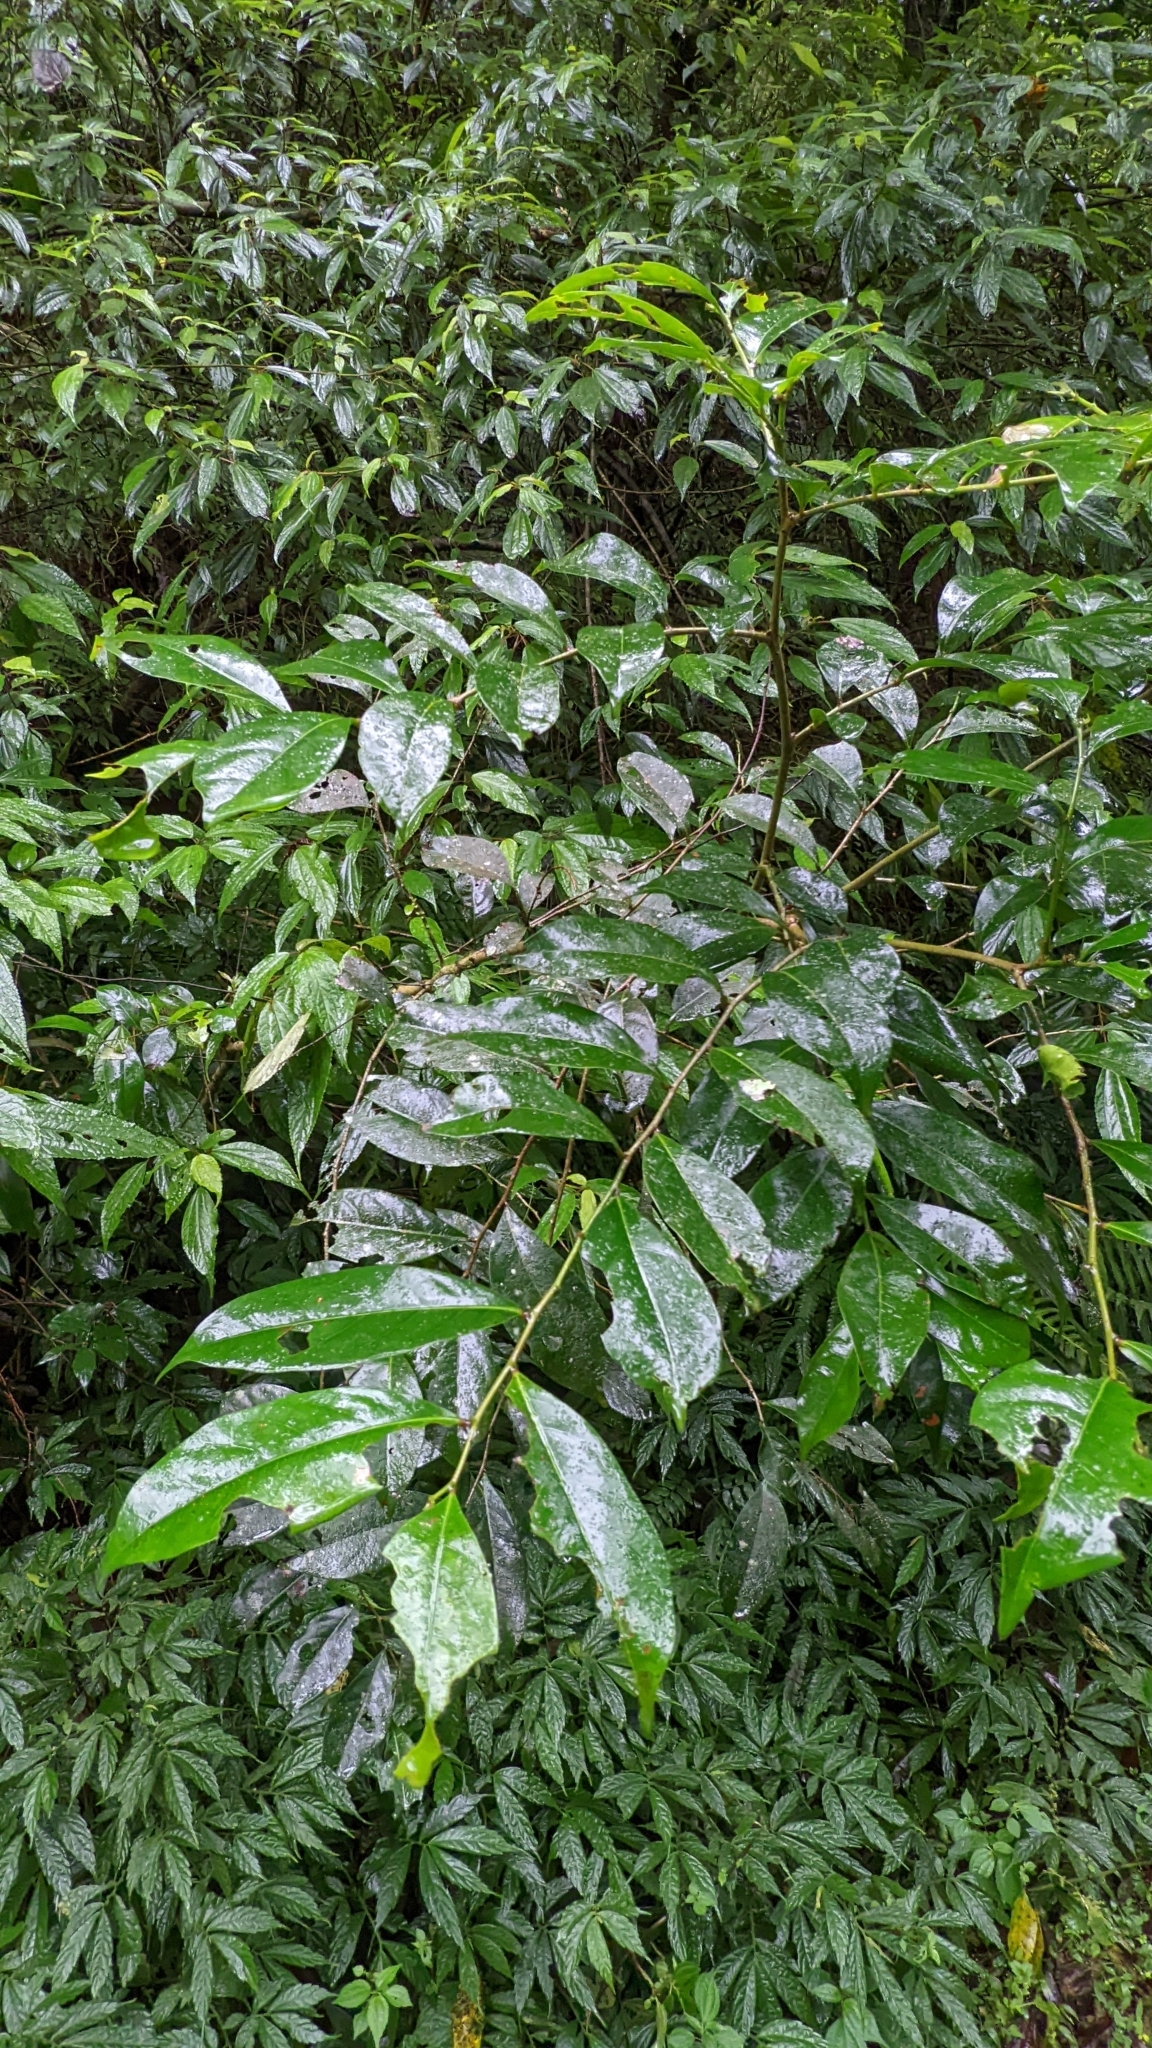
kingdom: Plantae
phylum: Tracheophyta
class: Magnoliopsida
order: Malpighiales
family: Phyllanthaceae
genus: Glochidion
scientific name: Glochidion rubrum
